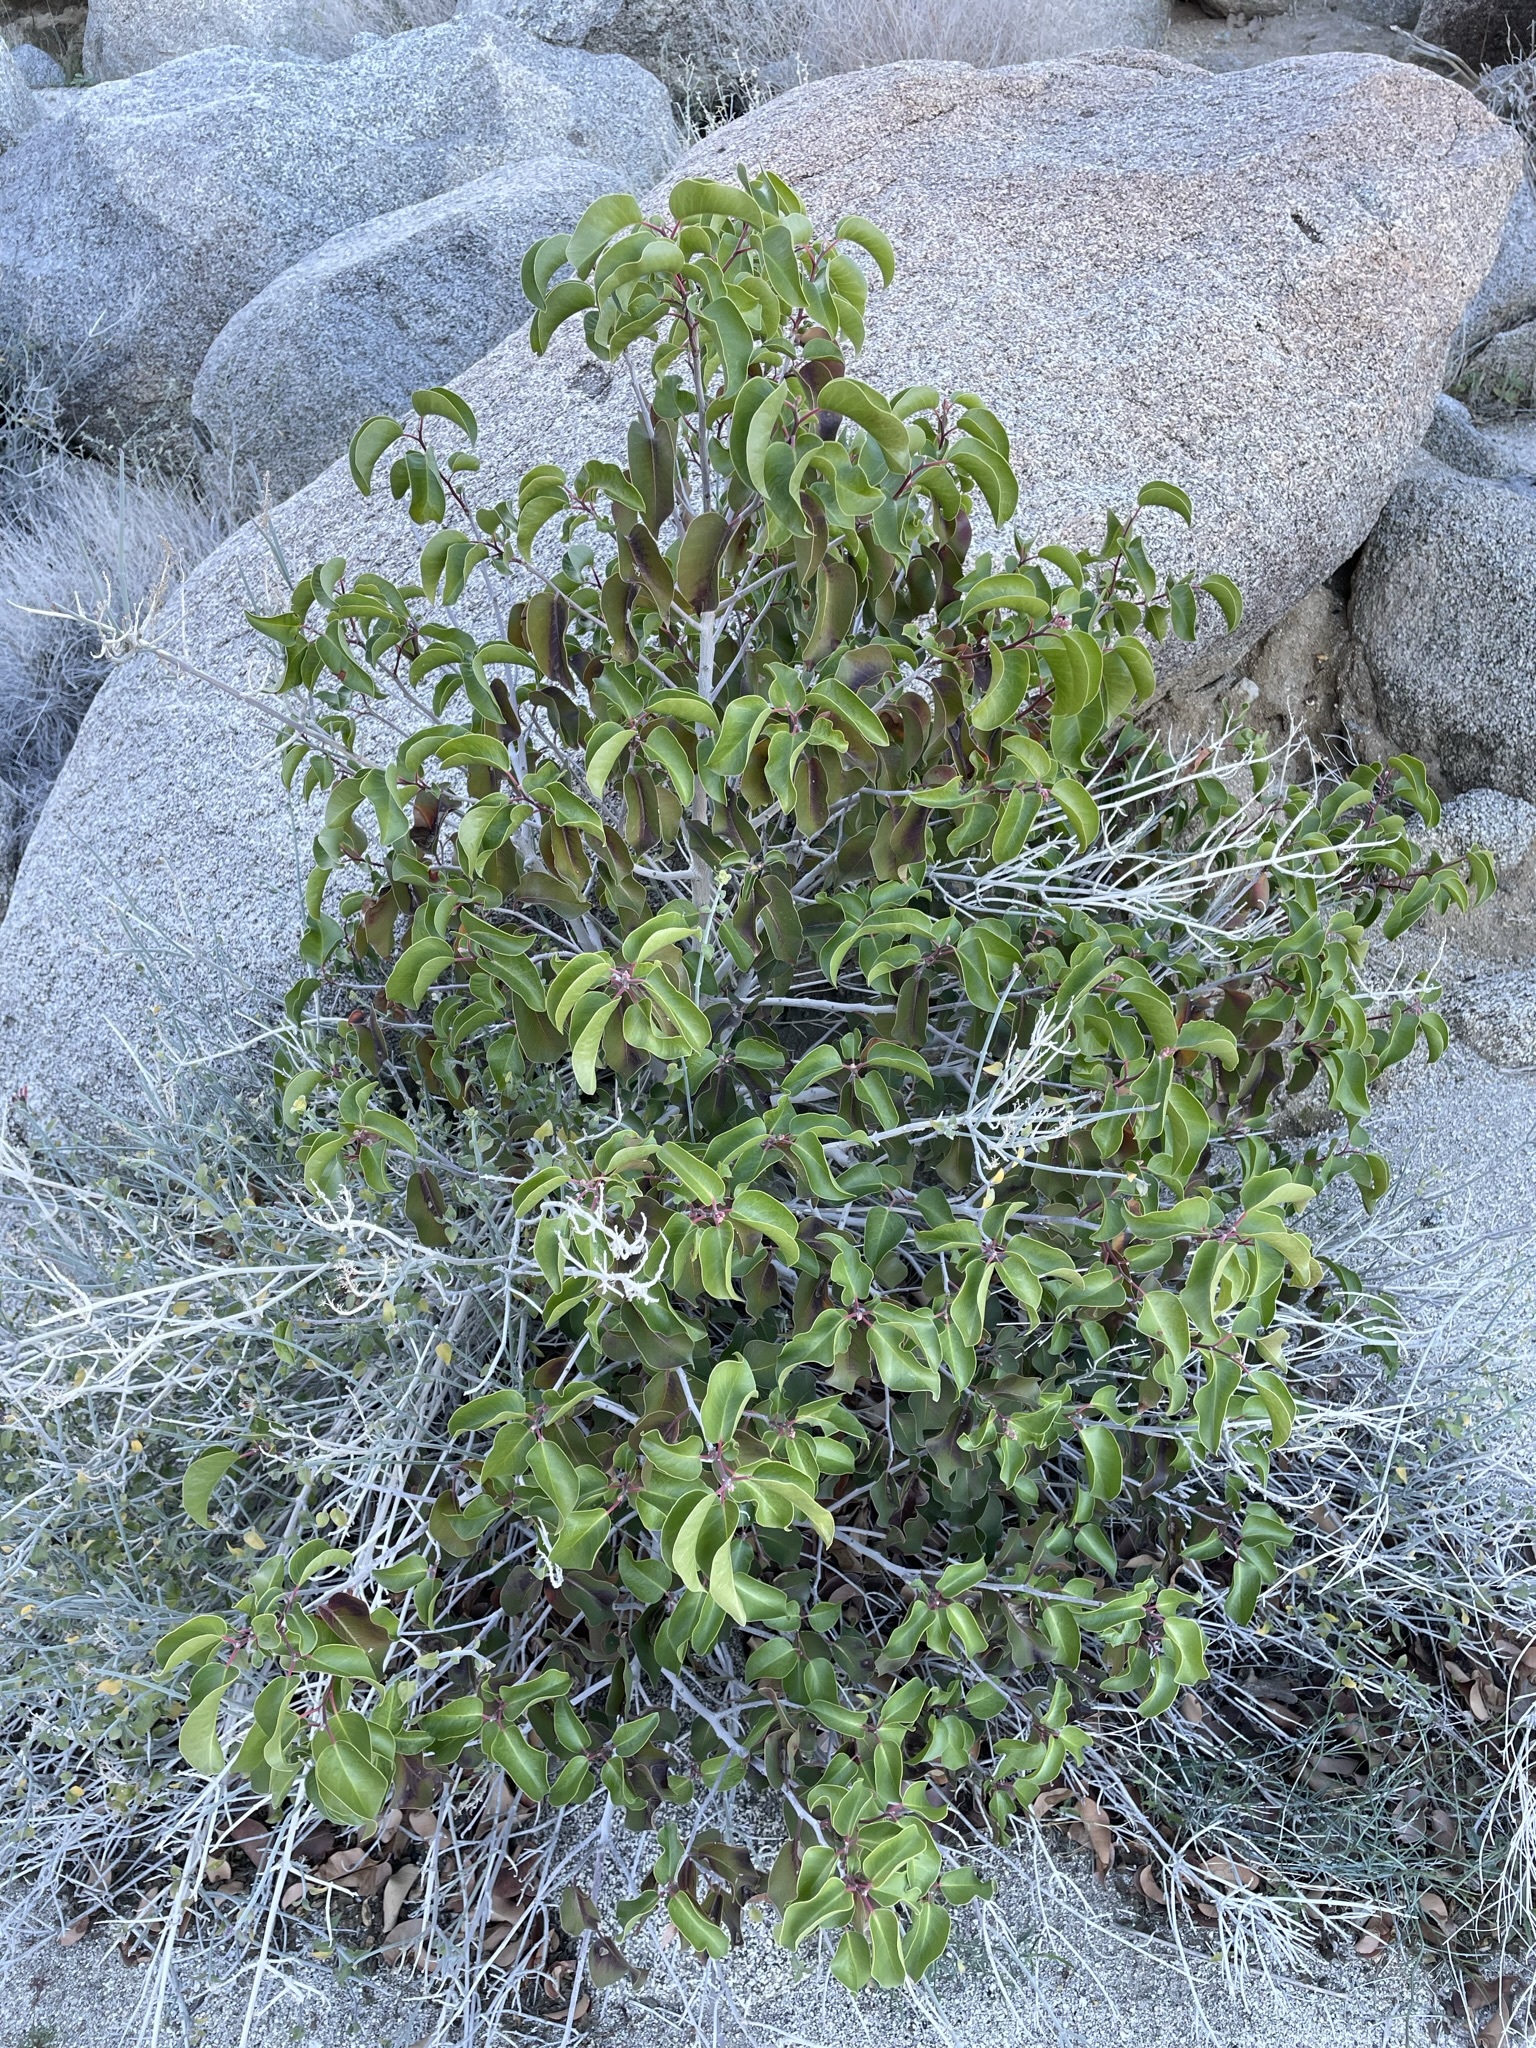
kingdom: Plantae
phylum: Tracheophyta
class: Magnoliopsida
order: Sapindales
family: Anacardiaceae
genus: Rhus
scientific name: Rhus ovata
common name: Sugar sumac
